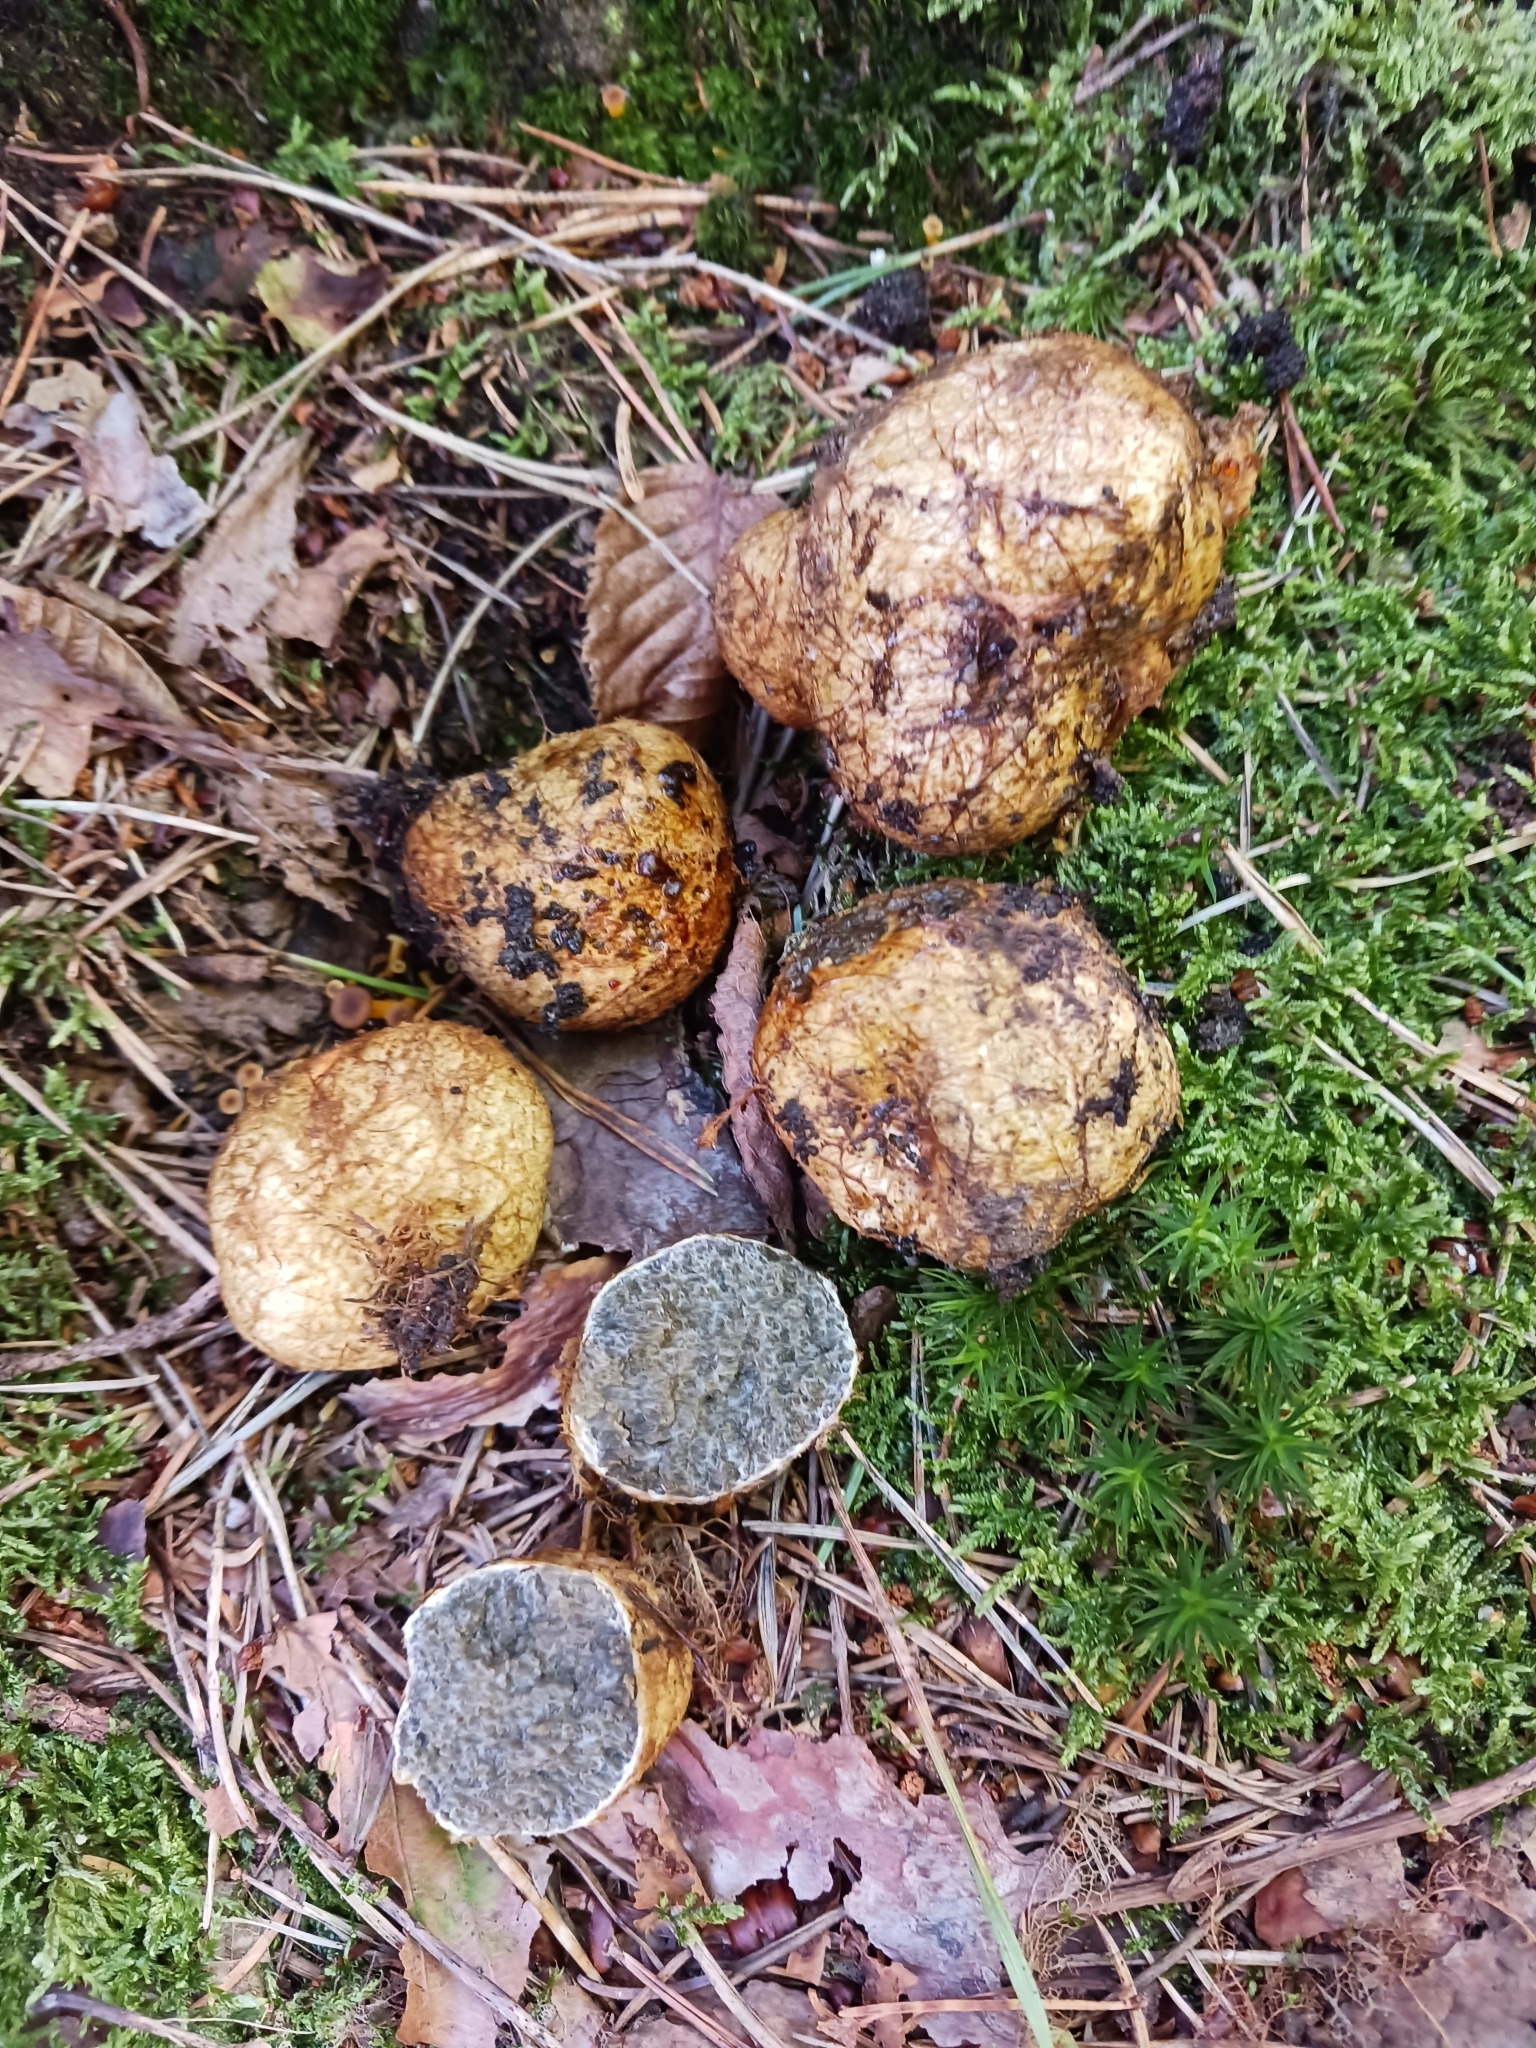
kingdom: Fungi
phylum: Basidiomycota
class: Agaricomycetes
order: Boletales
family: Rhizopogonaceae
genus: Rhizopogon
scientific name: Rhizopogon luteolus
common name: Yellow false truffle
